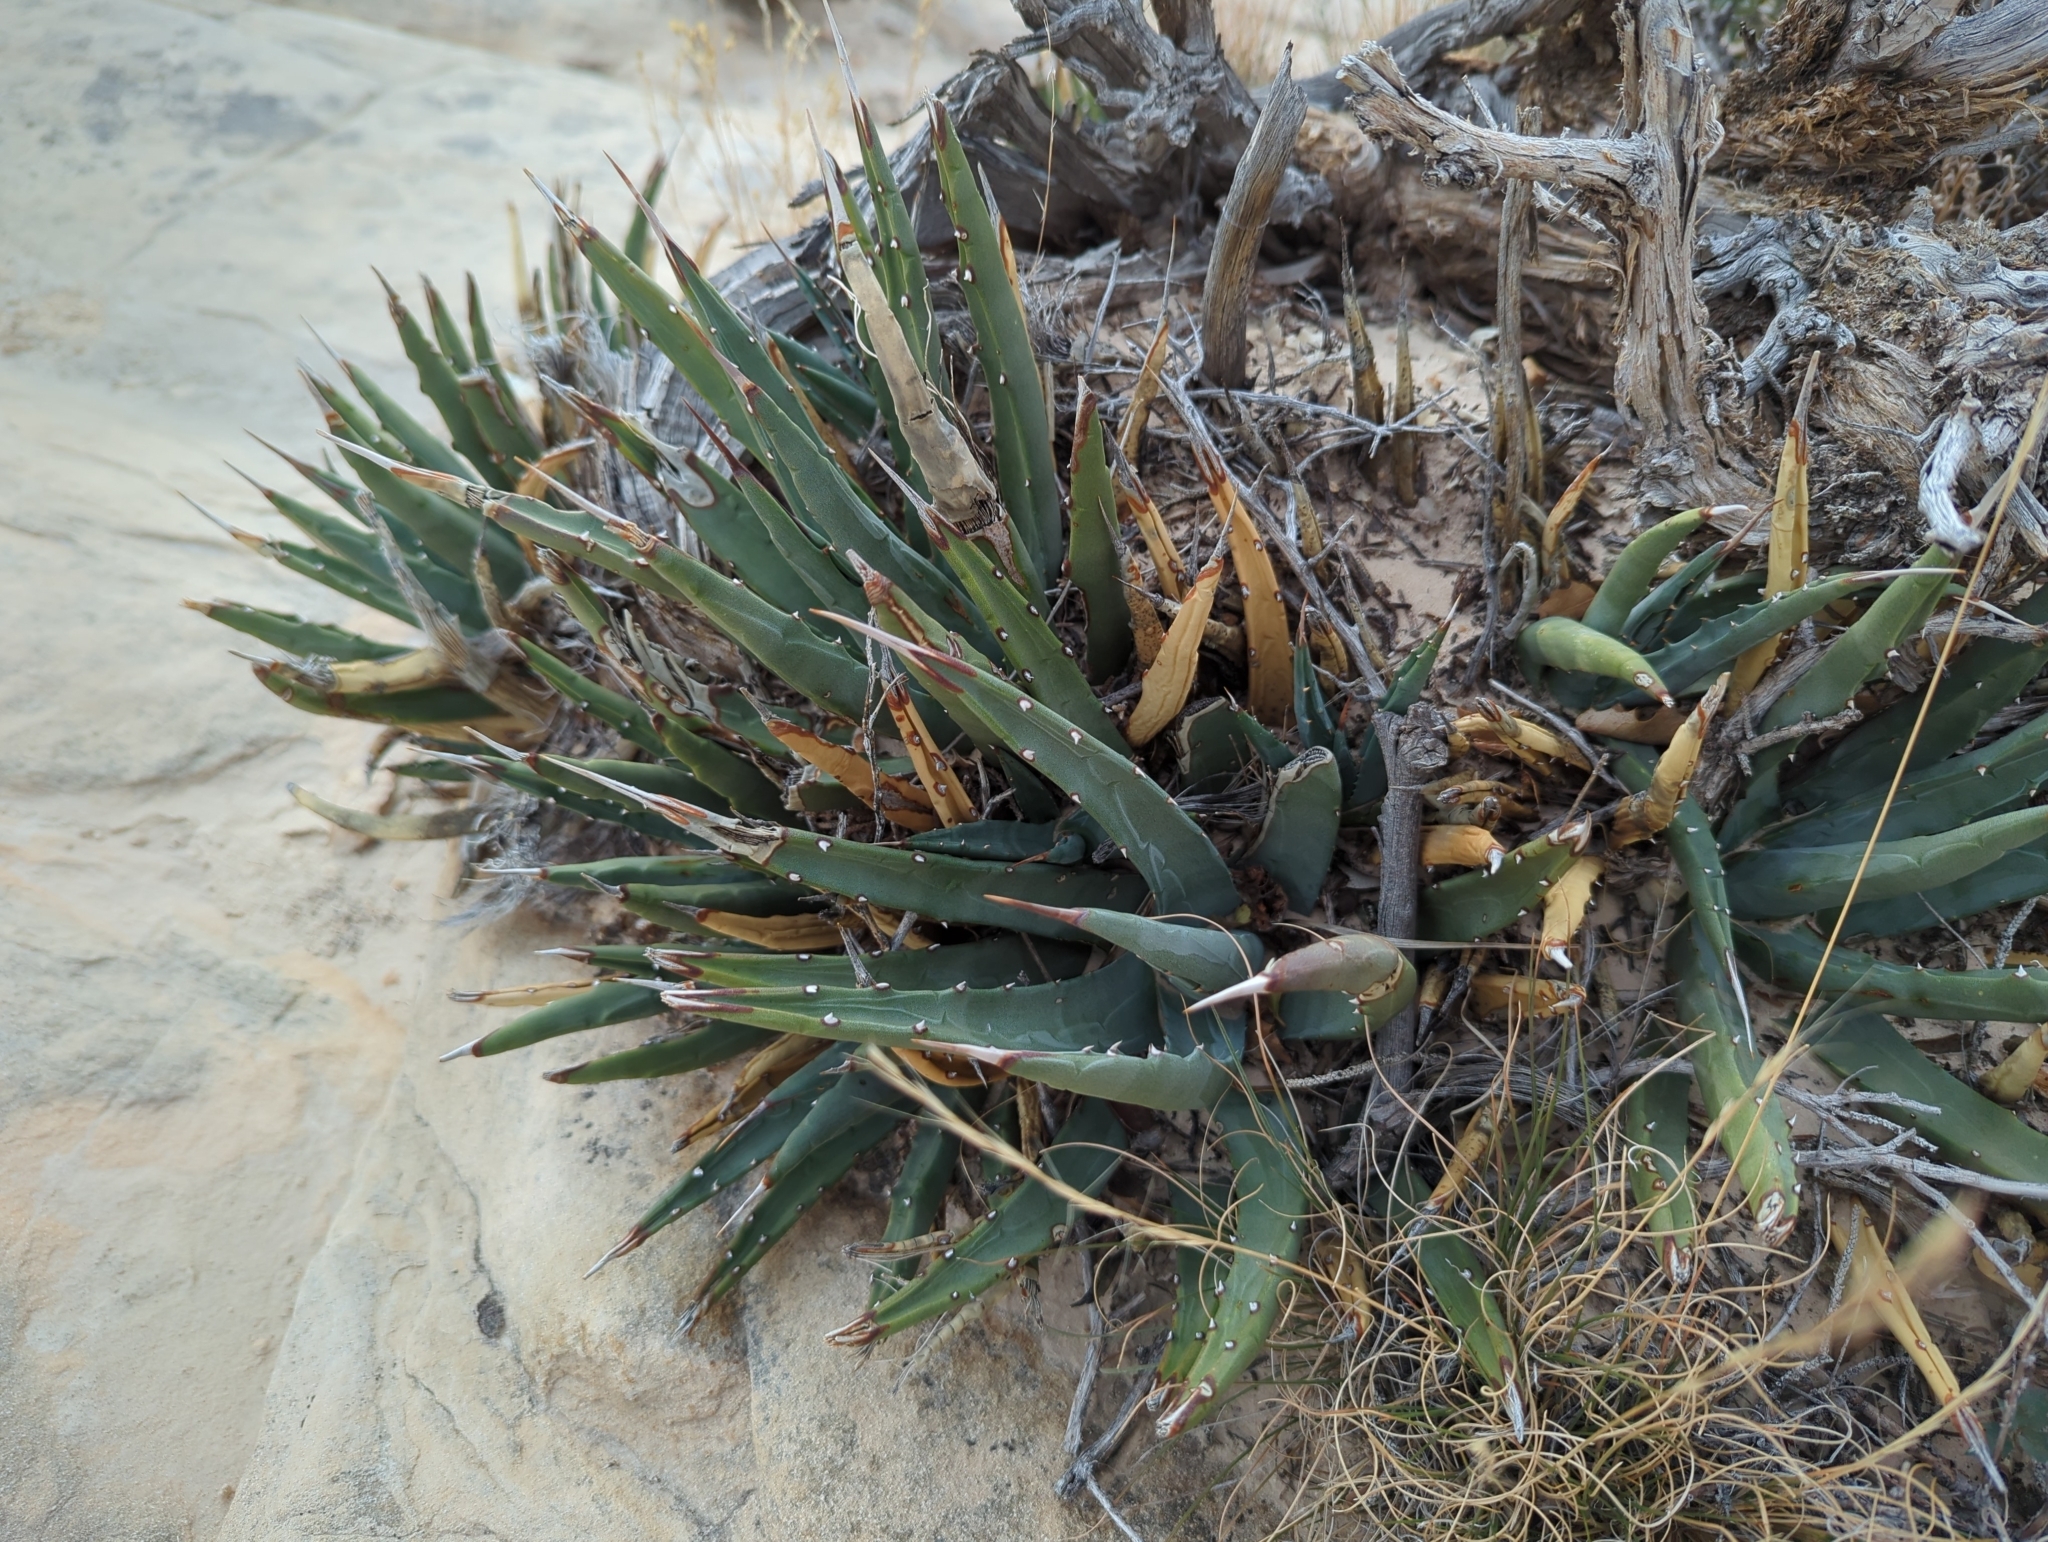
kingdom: Plantae
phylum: Tracheophyta
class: Liliopsida
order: Asparagales
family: Asparagaceae
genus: Agave
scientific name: Agave utahensis
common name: Utah agave
